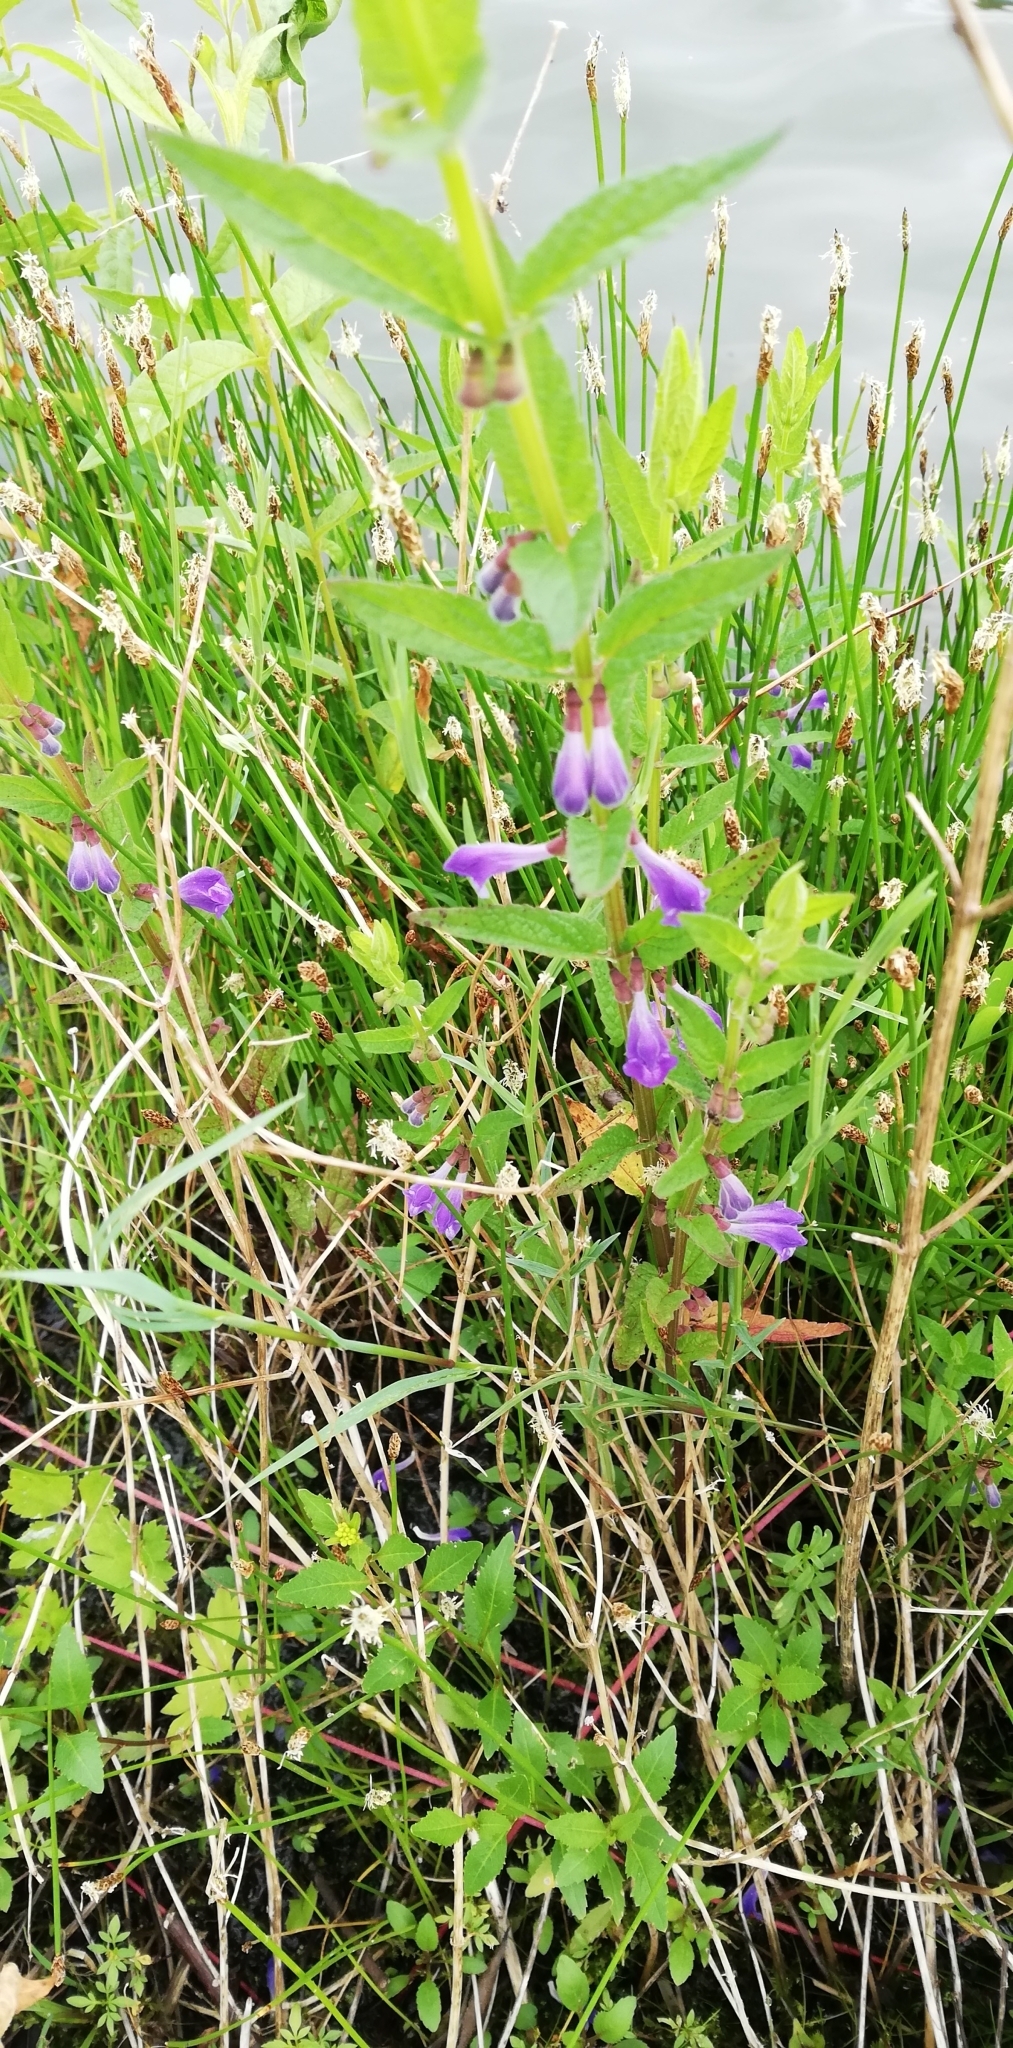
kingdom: Plantae
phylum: Tracheophyta
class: Magnoliopsida
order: Lamiales
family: Lamiaceae
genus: Scutellaria
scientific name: Scutellaria galericulata
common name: Skullcap
